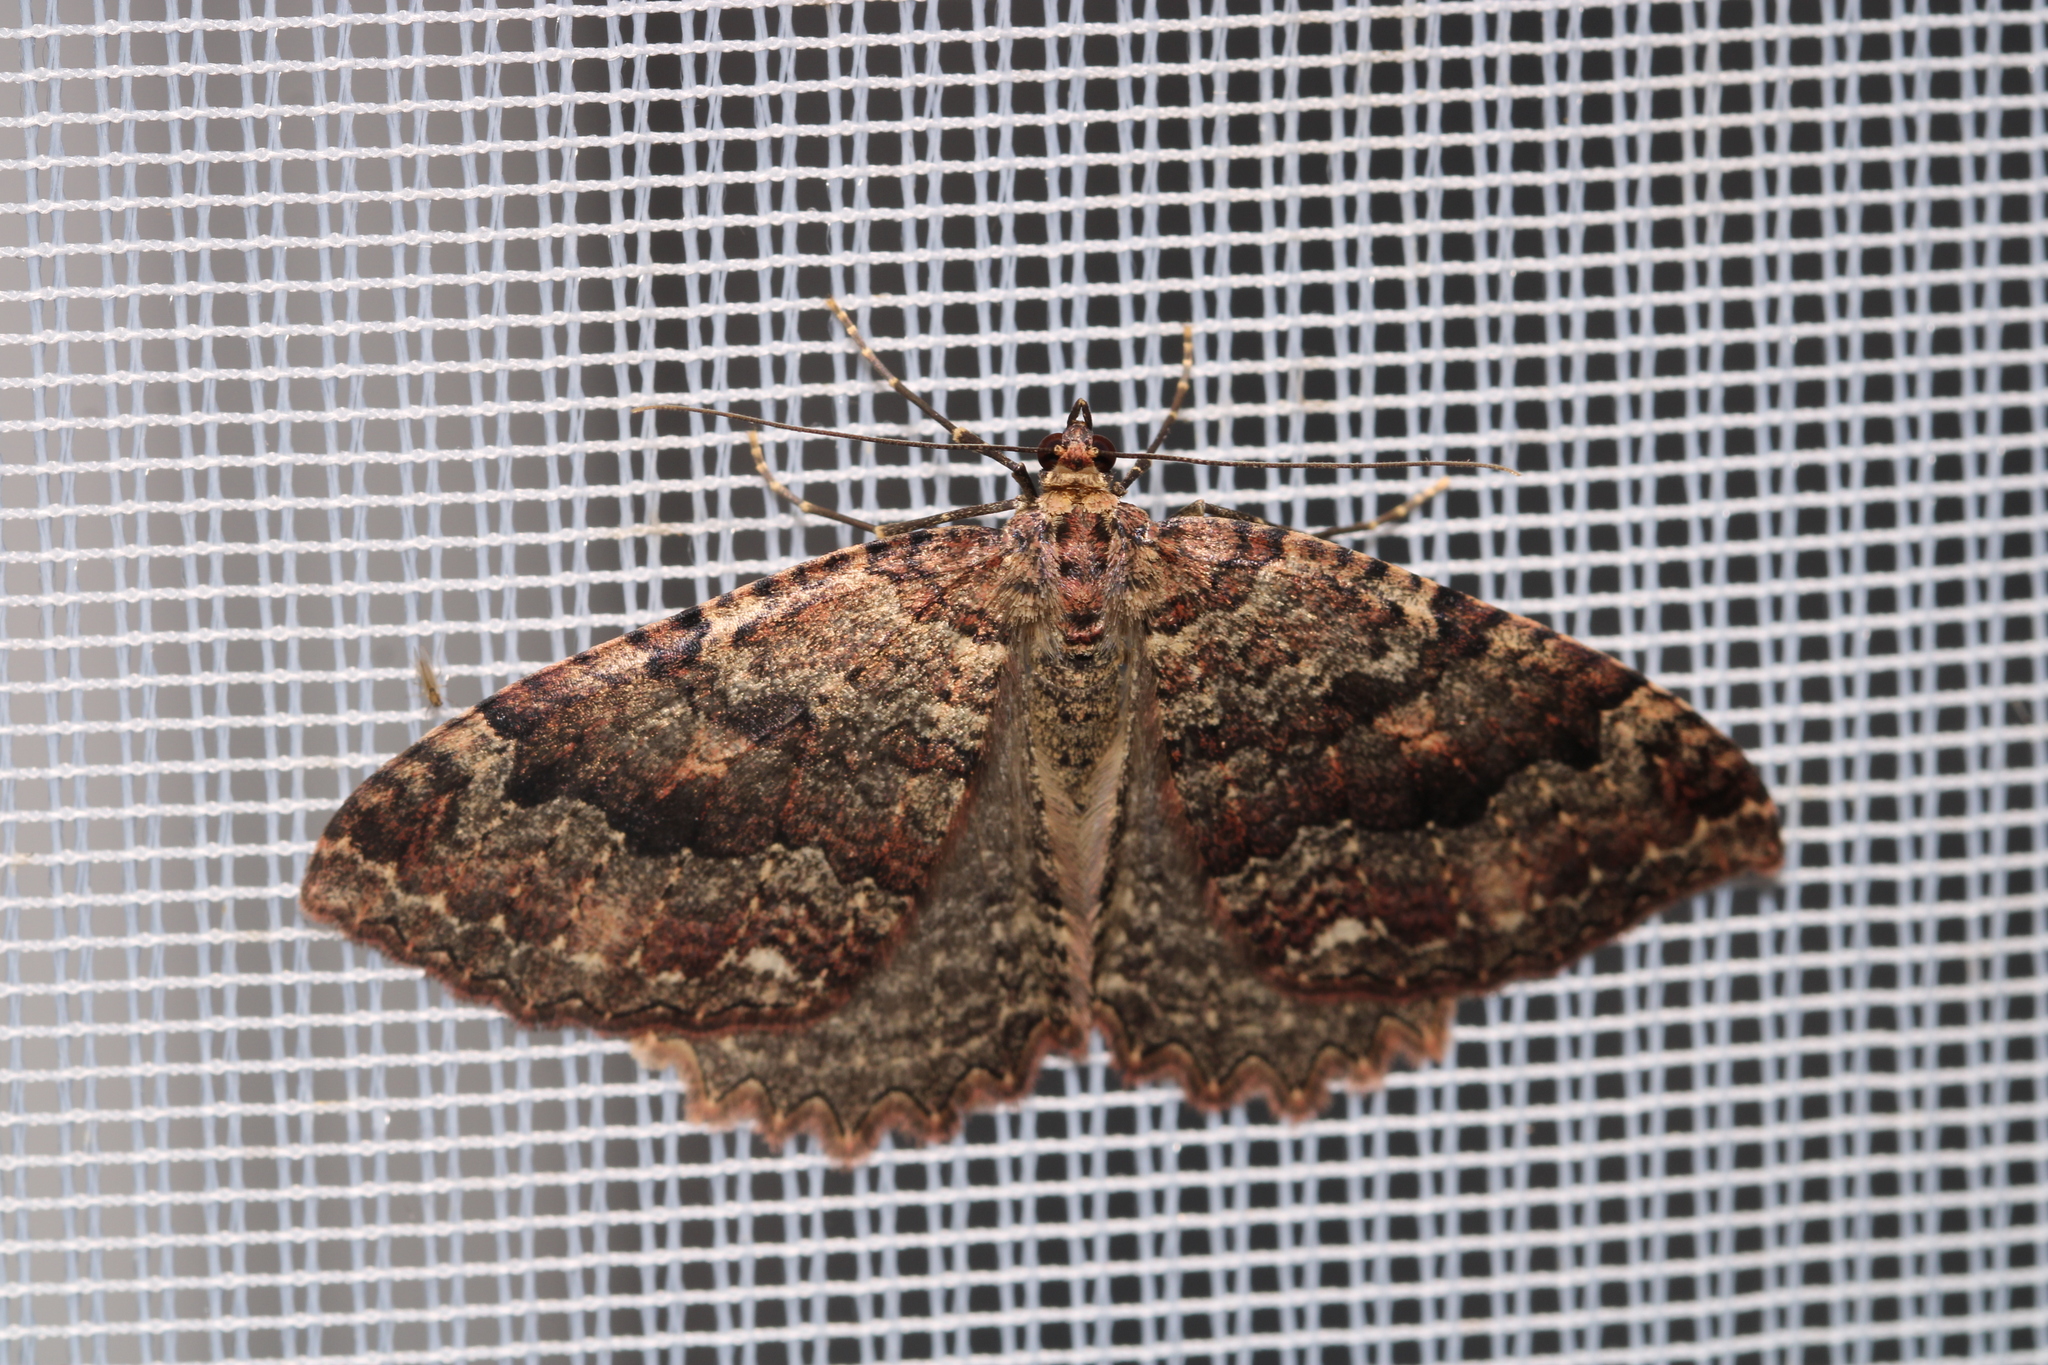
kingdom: Animalia
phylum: Arthropoda
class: Insecta
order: Lepidoptera
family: Geometridae
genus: Triphosa
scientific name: Triphosa dubitata
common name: Tissue
